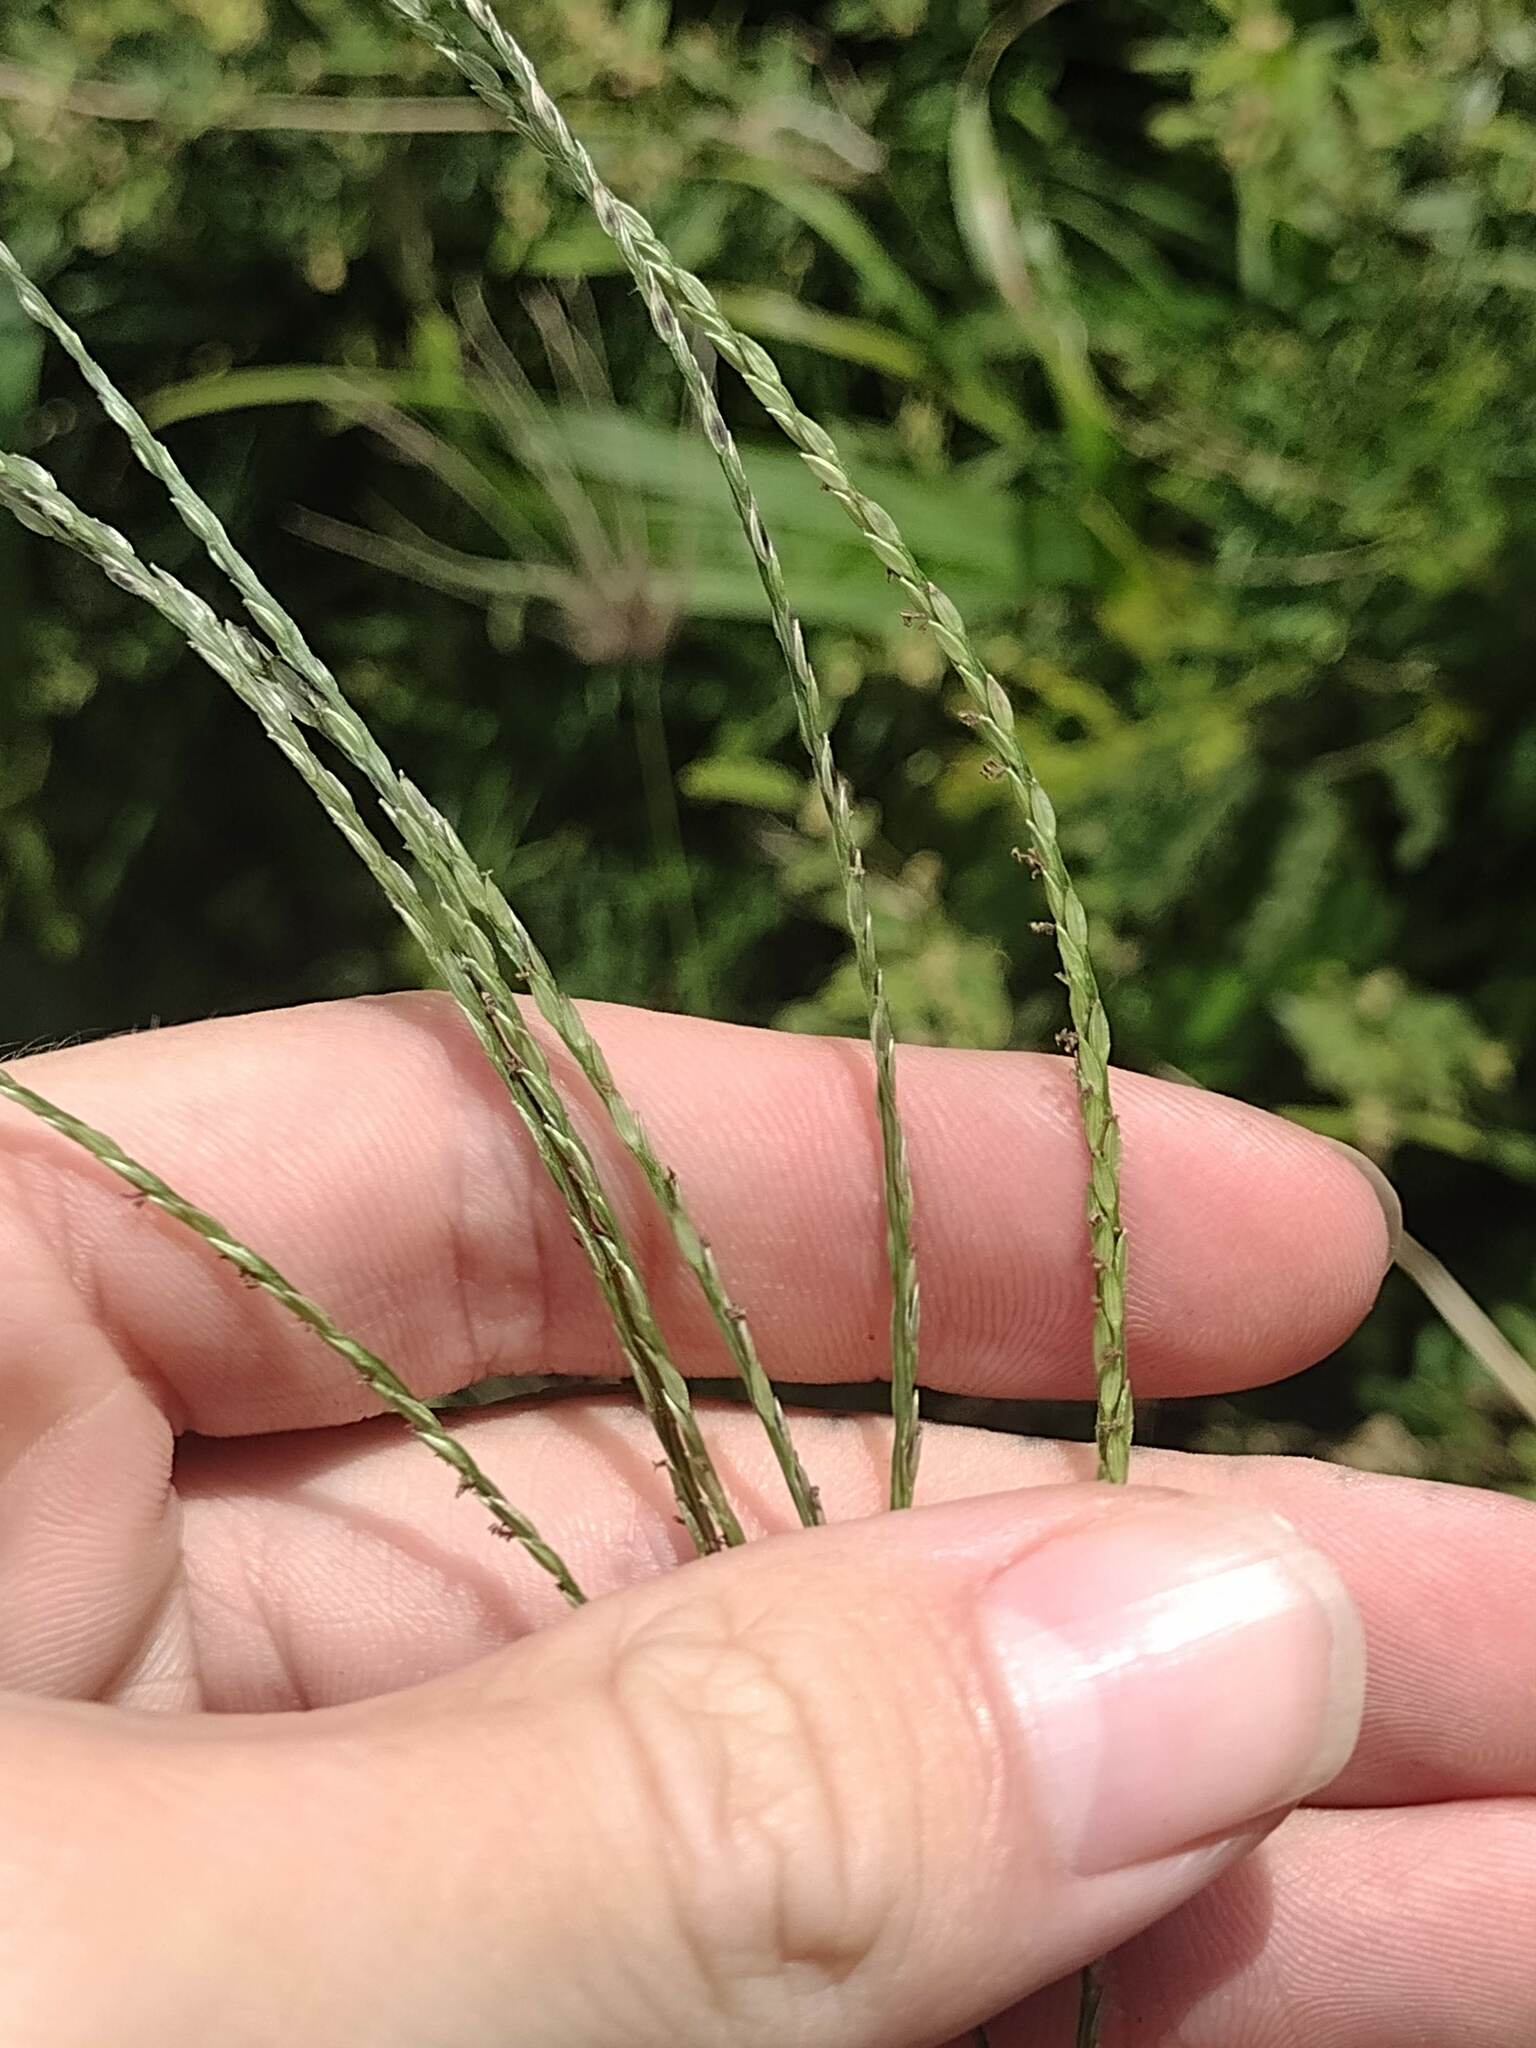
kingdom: Plantae
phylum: Tracheophyta
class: Liliopsida
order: Poales
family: Poaceae
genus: Digitaria
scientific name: Digitaria ciliaris
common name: Tropical finger-grass
